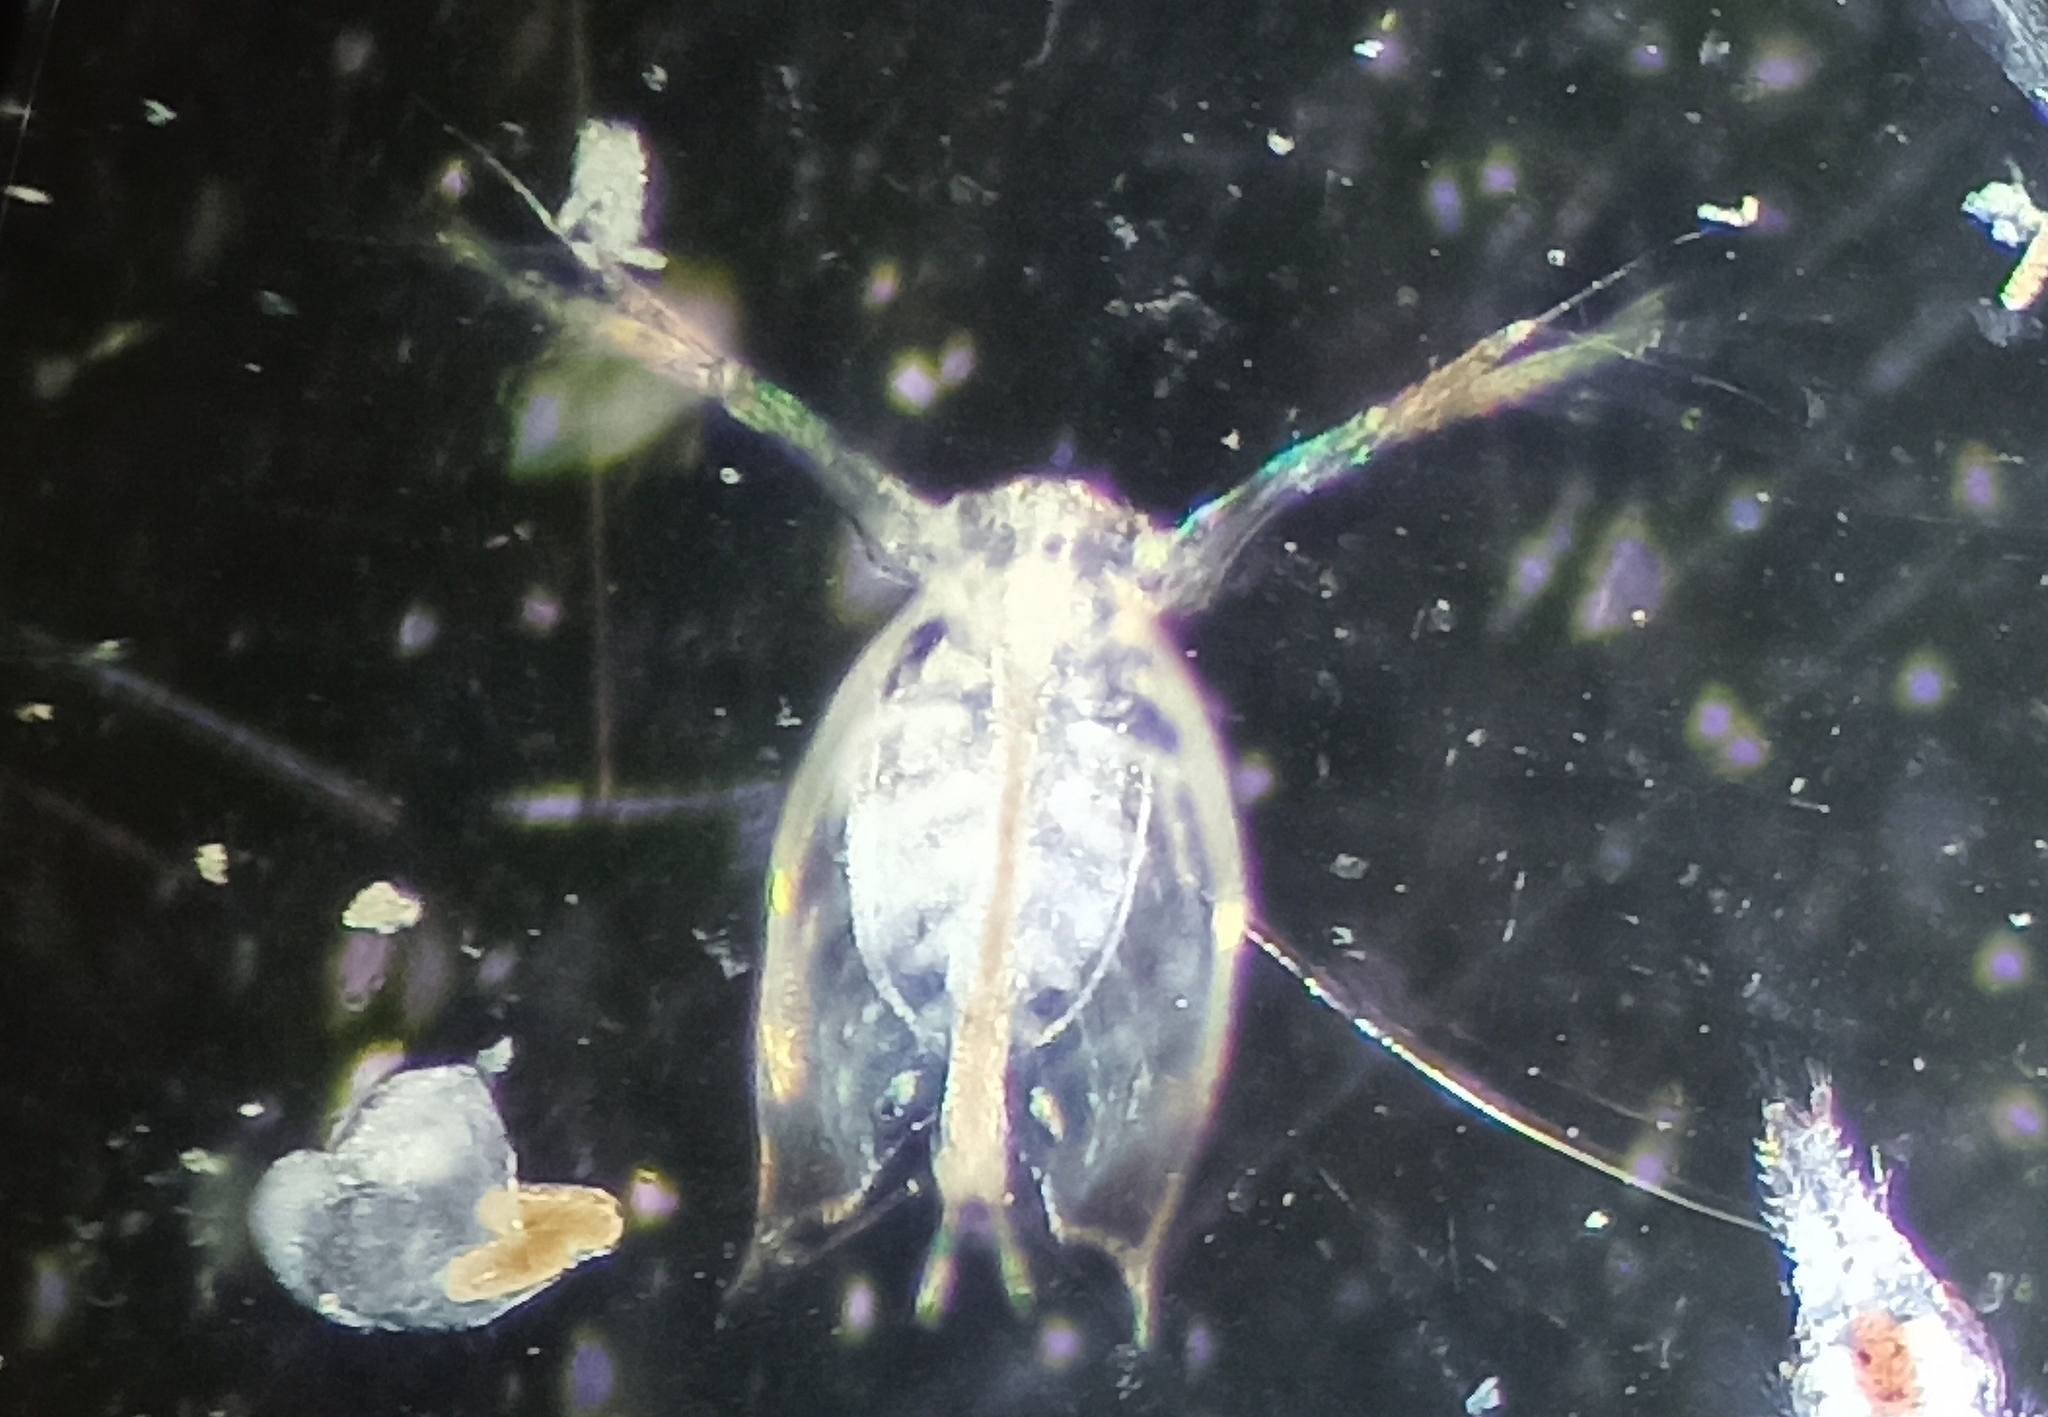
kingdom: Animalia
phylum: Arthropoda
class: Branchiopoda
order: Diplostraca
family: Sididae
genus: Penilia
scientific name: Penilia avirostris
